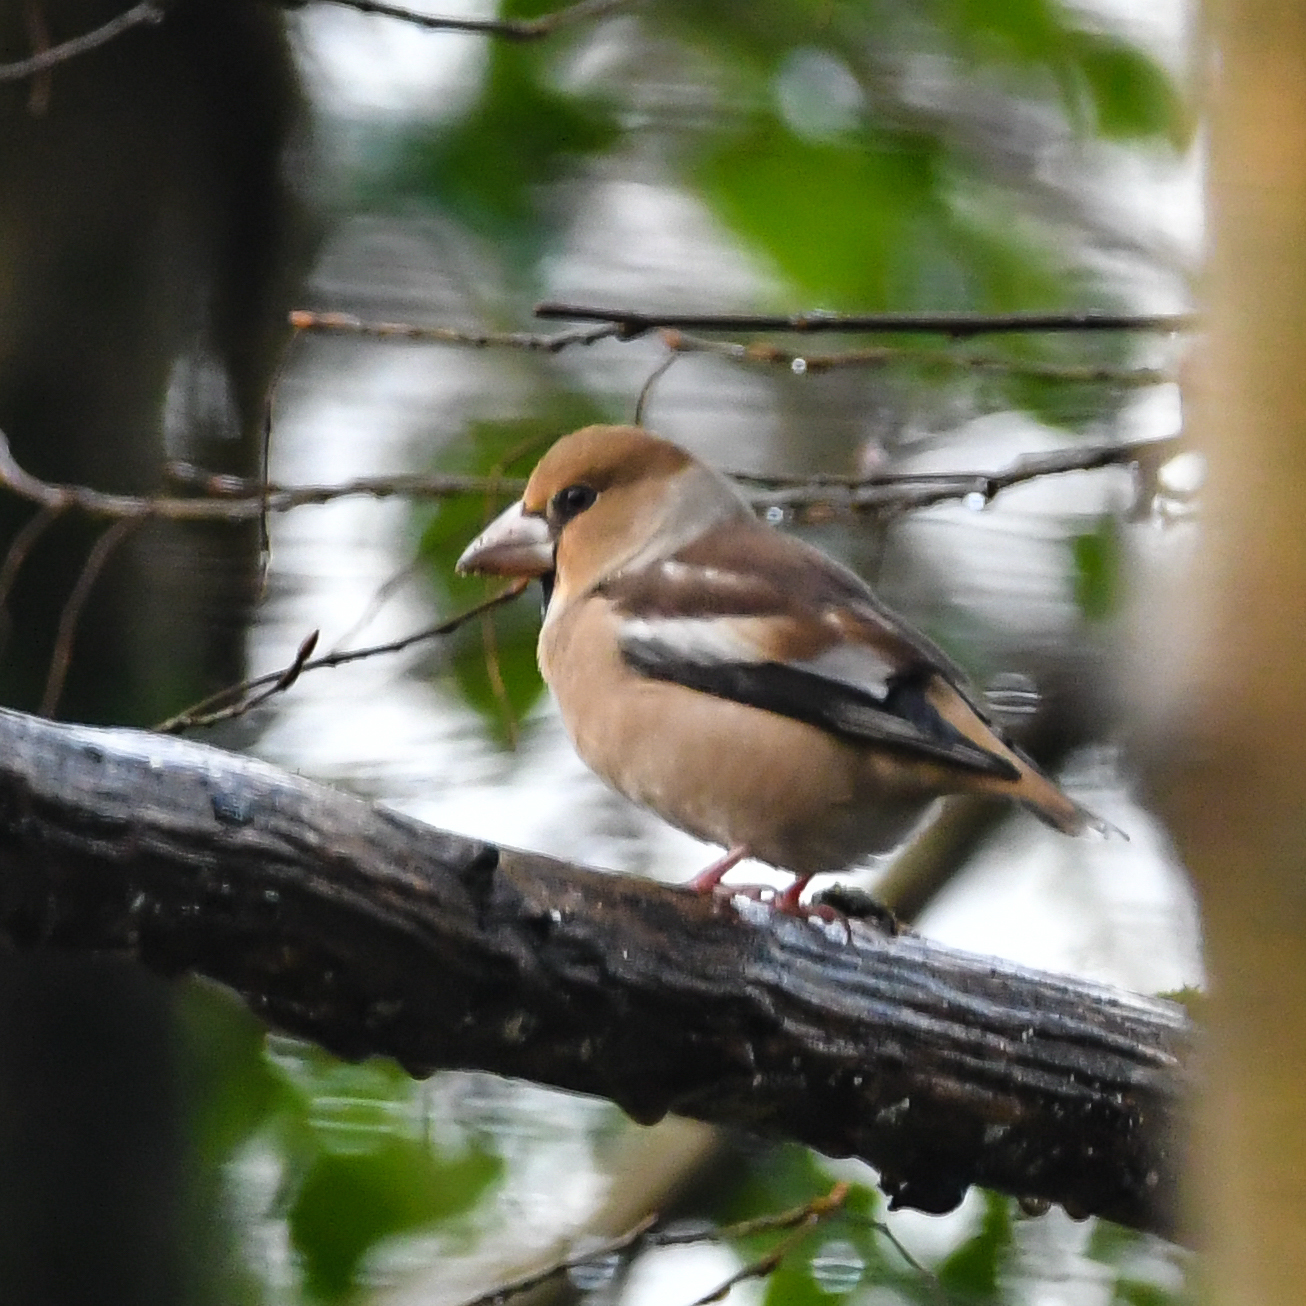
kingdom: Animalia
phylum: Chordata
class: Aves
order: Passeriformes
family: Fringillidae
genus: Coccothraustes
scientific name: Coccothraustes coccothraustes
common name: Hawfinch
